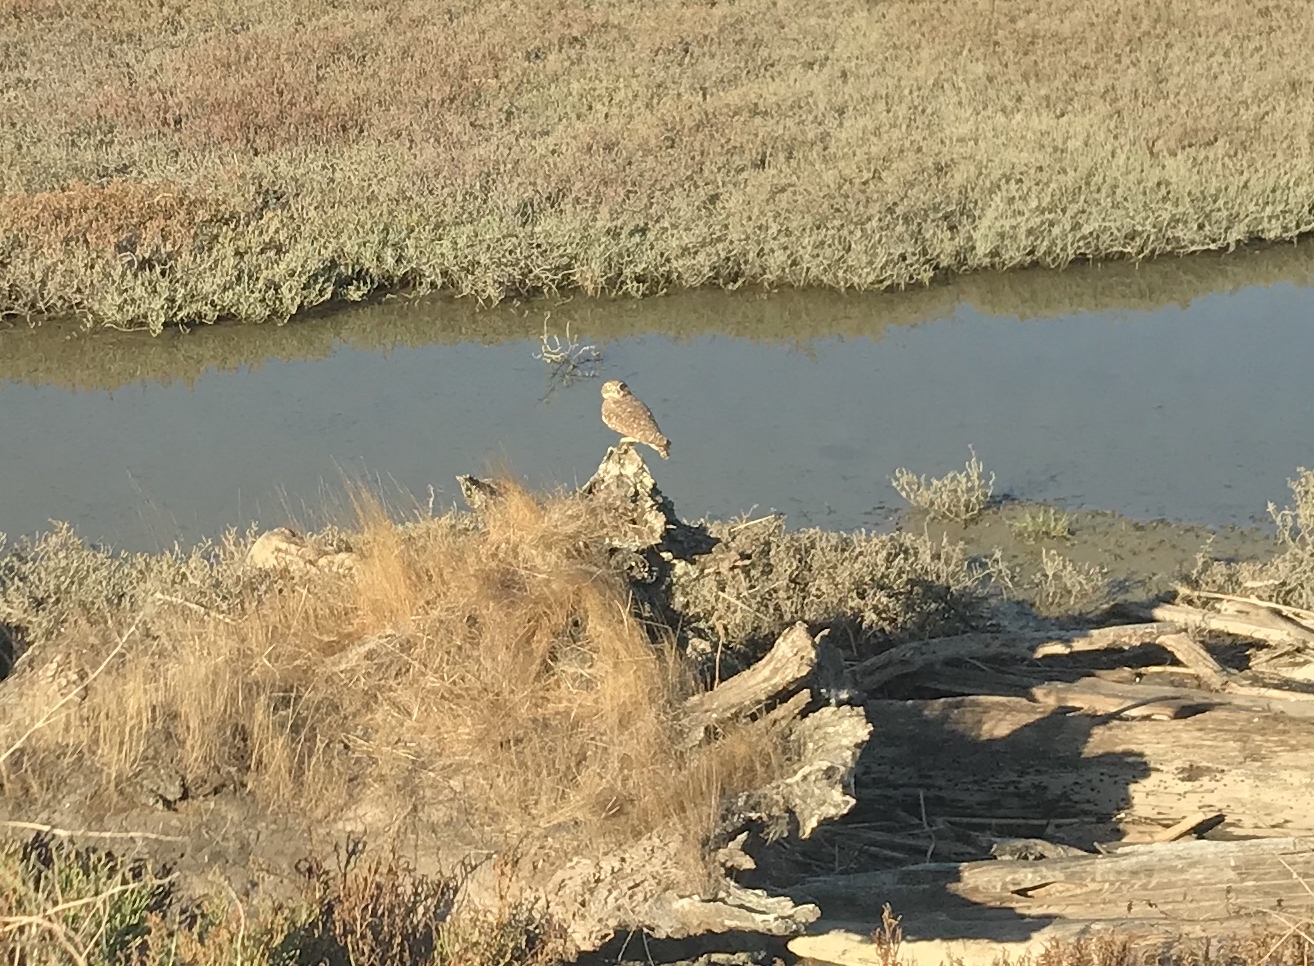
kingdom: Animalia
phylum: Chordata
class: Aves
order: Strigiformes
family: Strigidae
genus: Athene
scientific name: Athene cunicularia
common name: Burrowing owl
